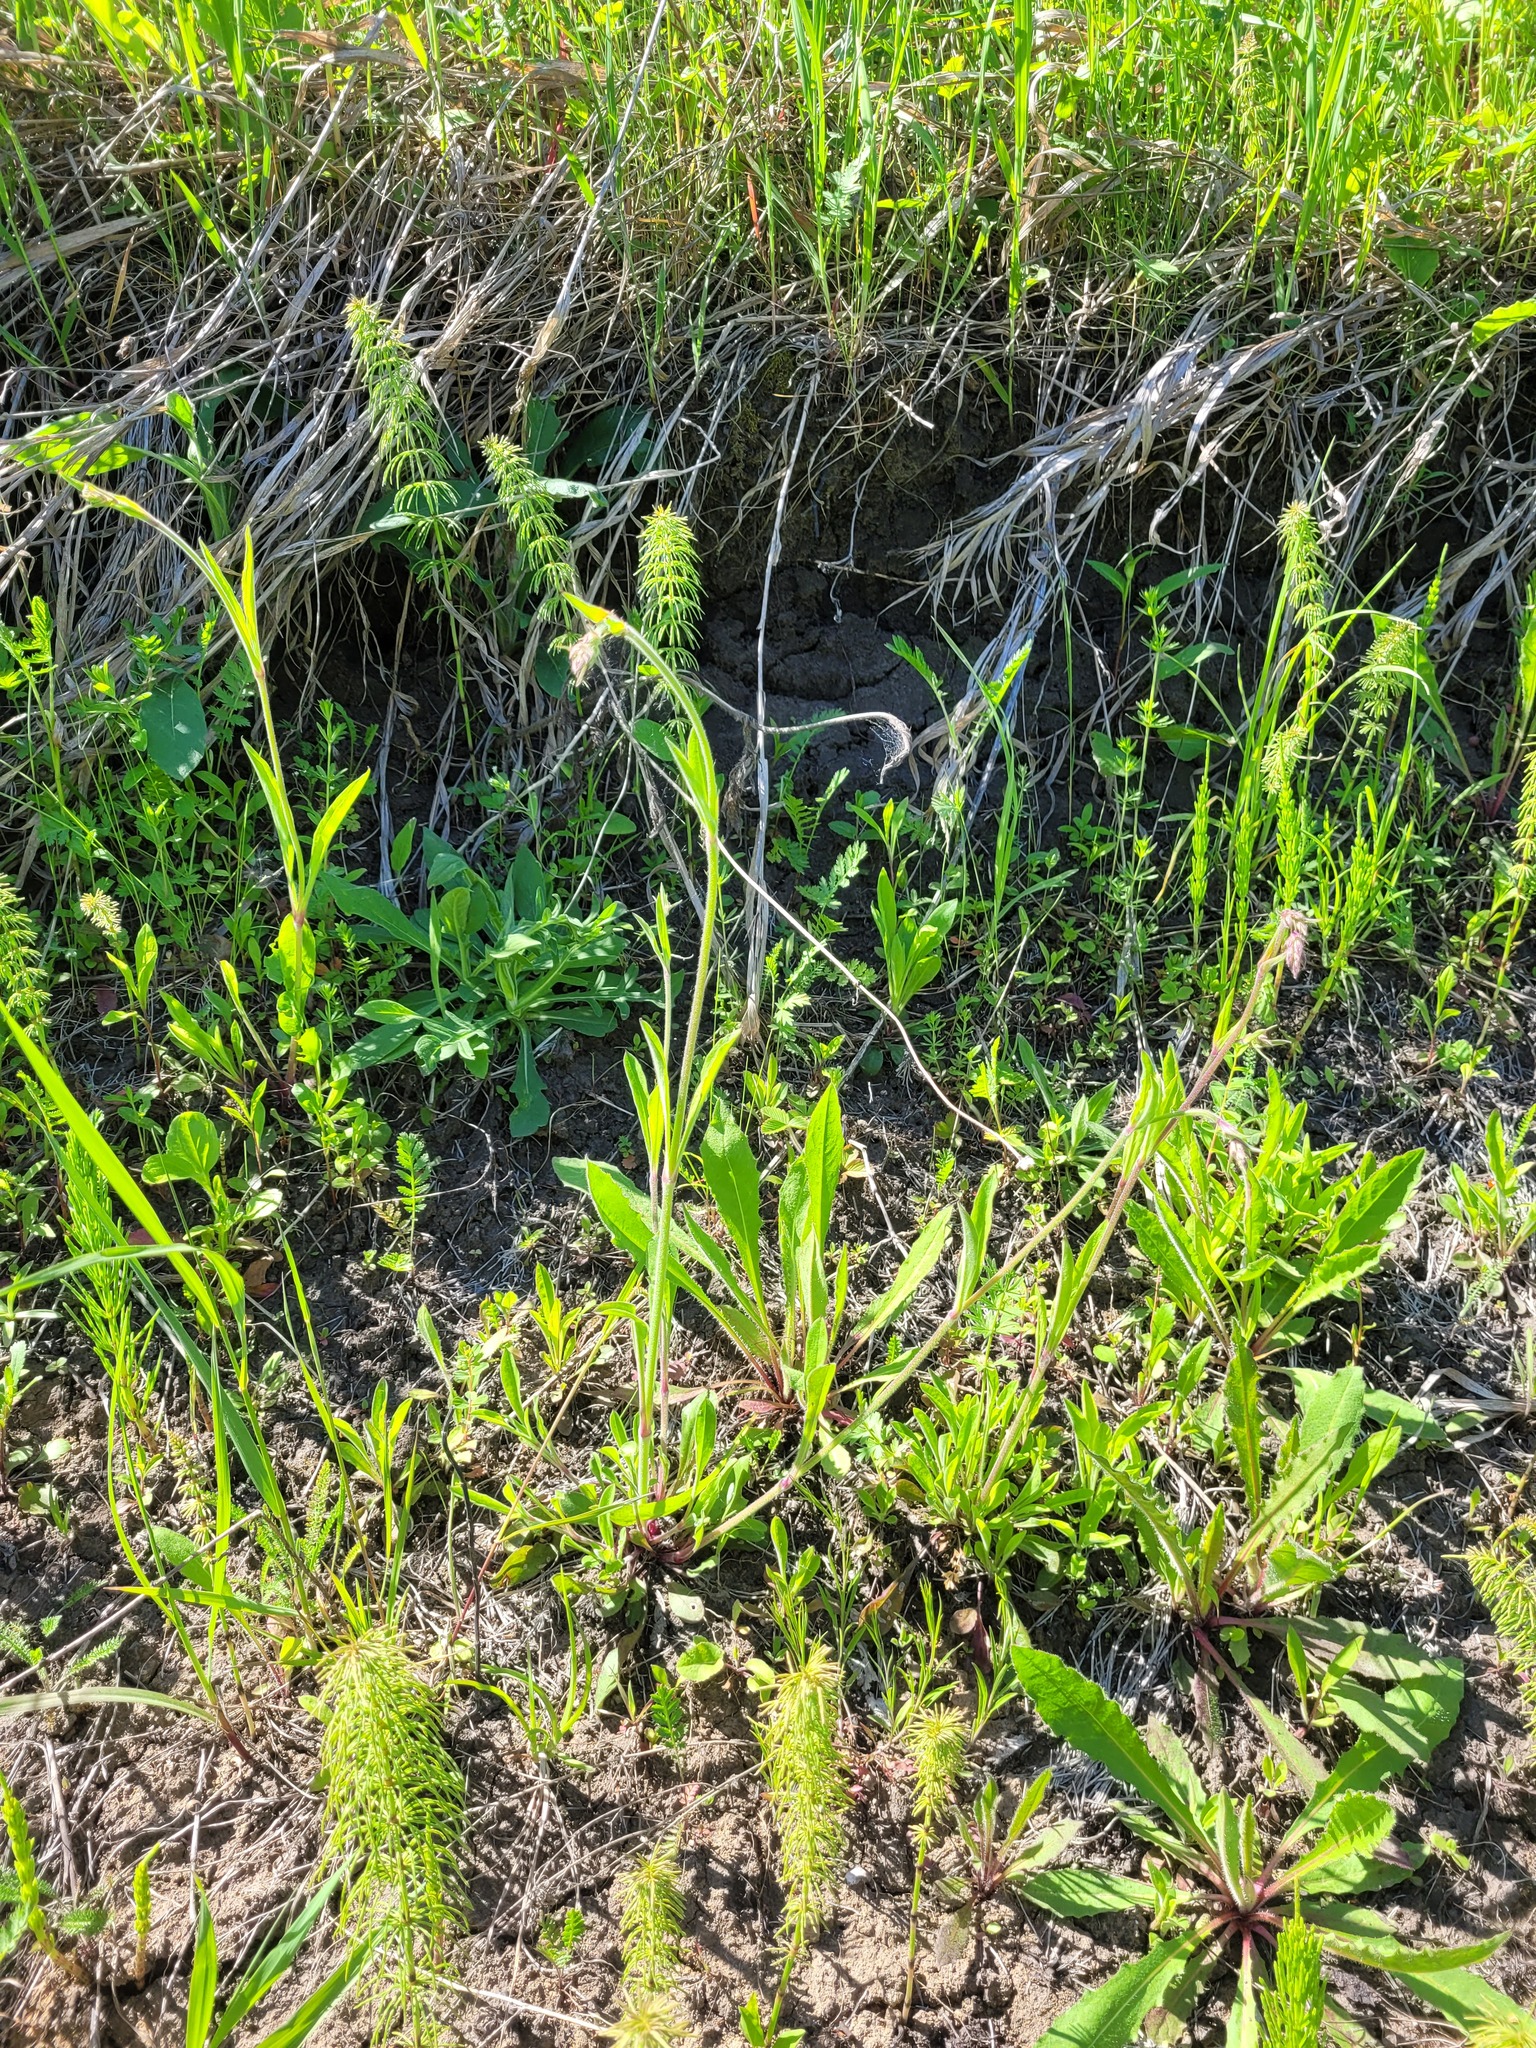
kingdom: Plantae
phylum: Tracheophyta
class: Magnoliopsida
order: Caryophyllales
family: Caryophyllaceae
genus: Silene
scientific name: Silene nutans
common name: Nottingham catchfly
